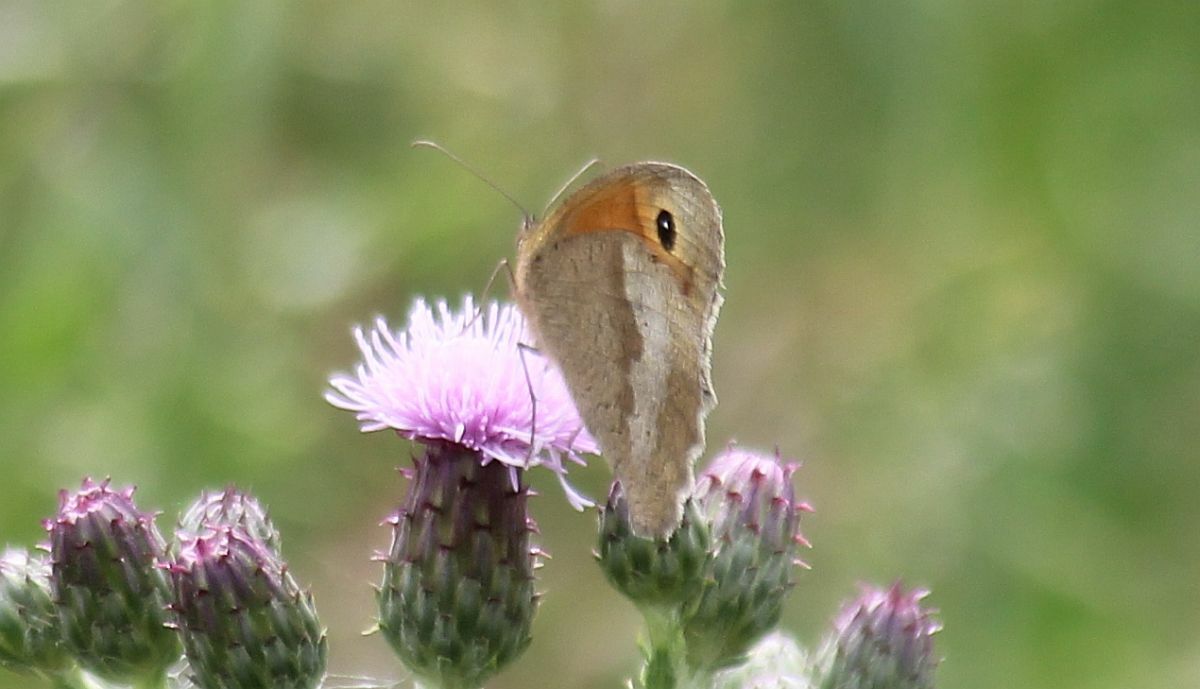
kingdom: Animalia
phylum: Arthropoda
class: Insecta
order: Lepidoptera
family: Nymphalidae
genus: Maniola
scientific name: Maniola jurtina
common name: Meadow brown
